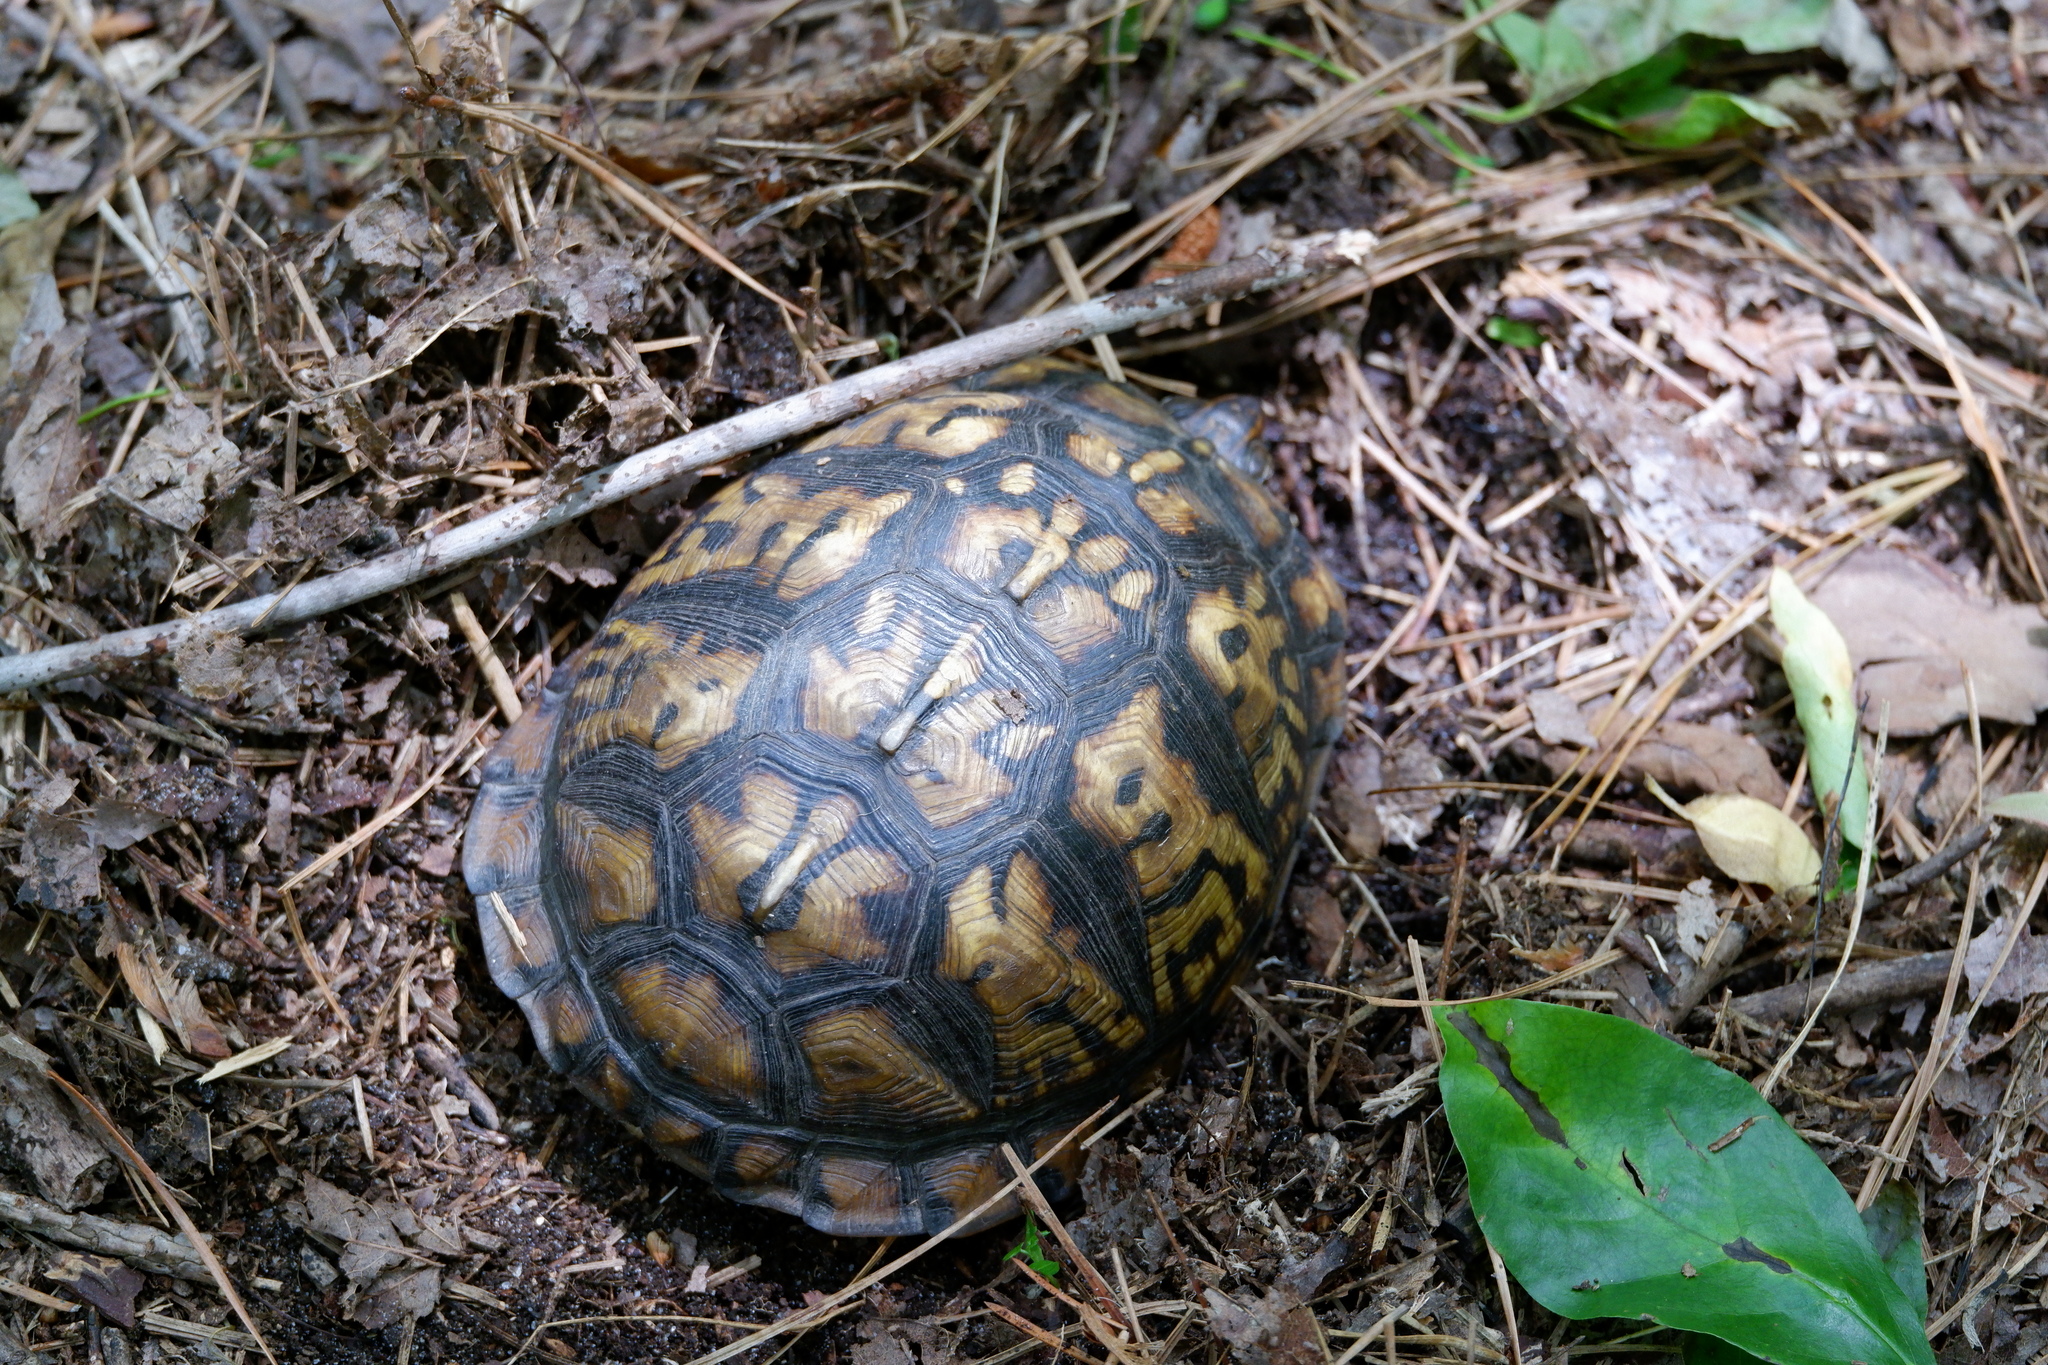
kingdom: Animalia
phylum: Chordata
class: Testudines
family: Emydidae
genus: Terrapene
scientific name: Terrapene carolina
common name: Common box turtle
